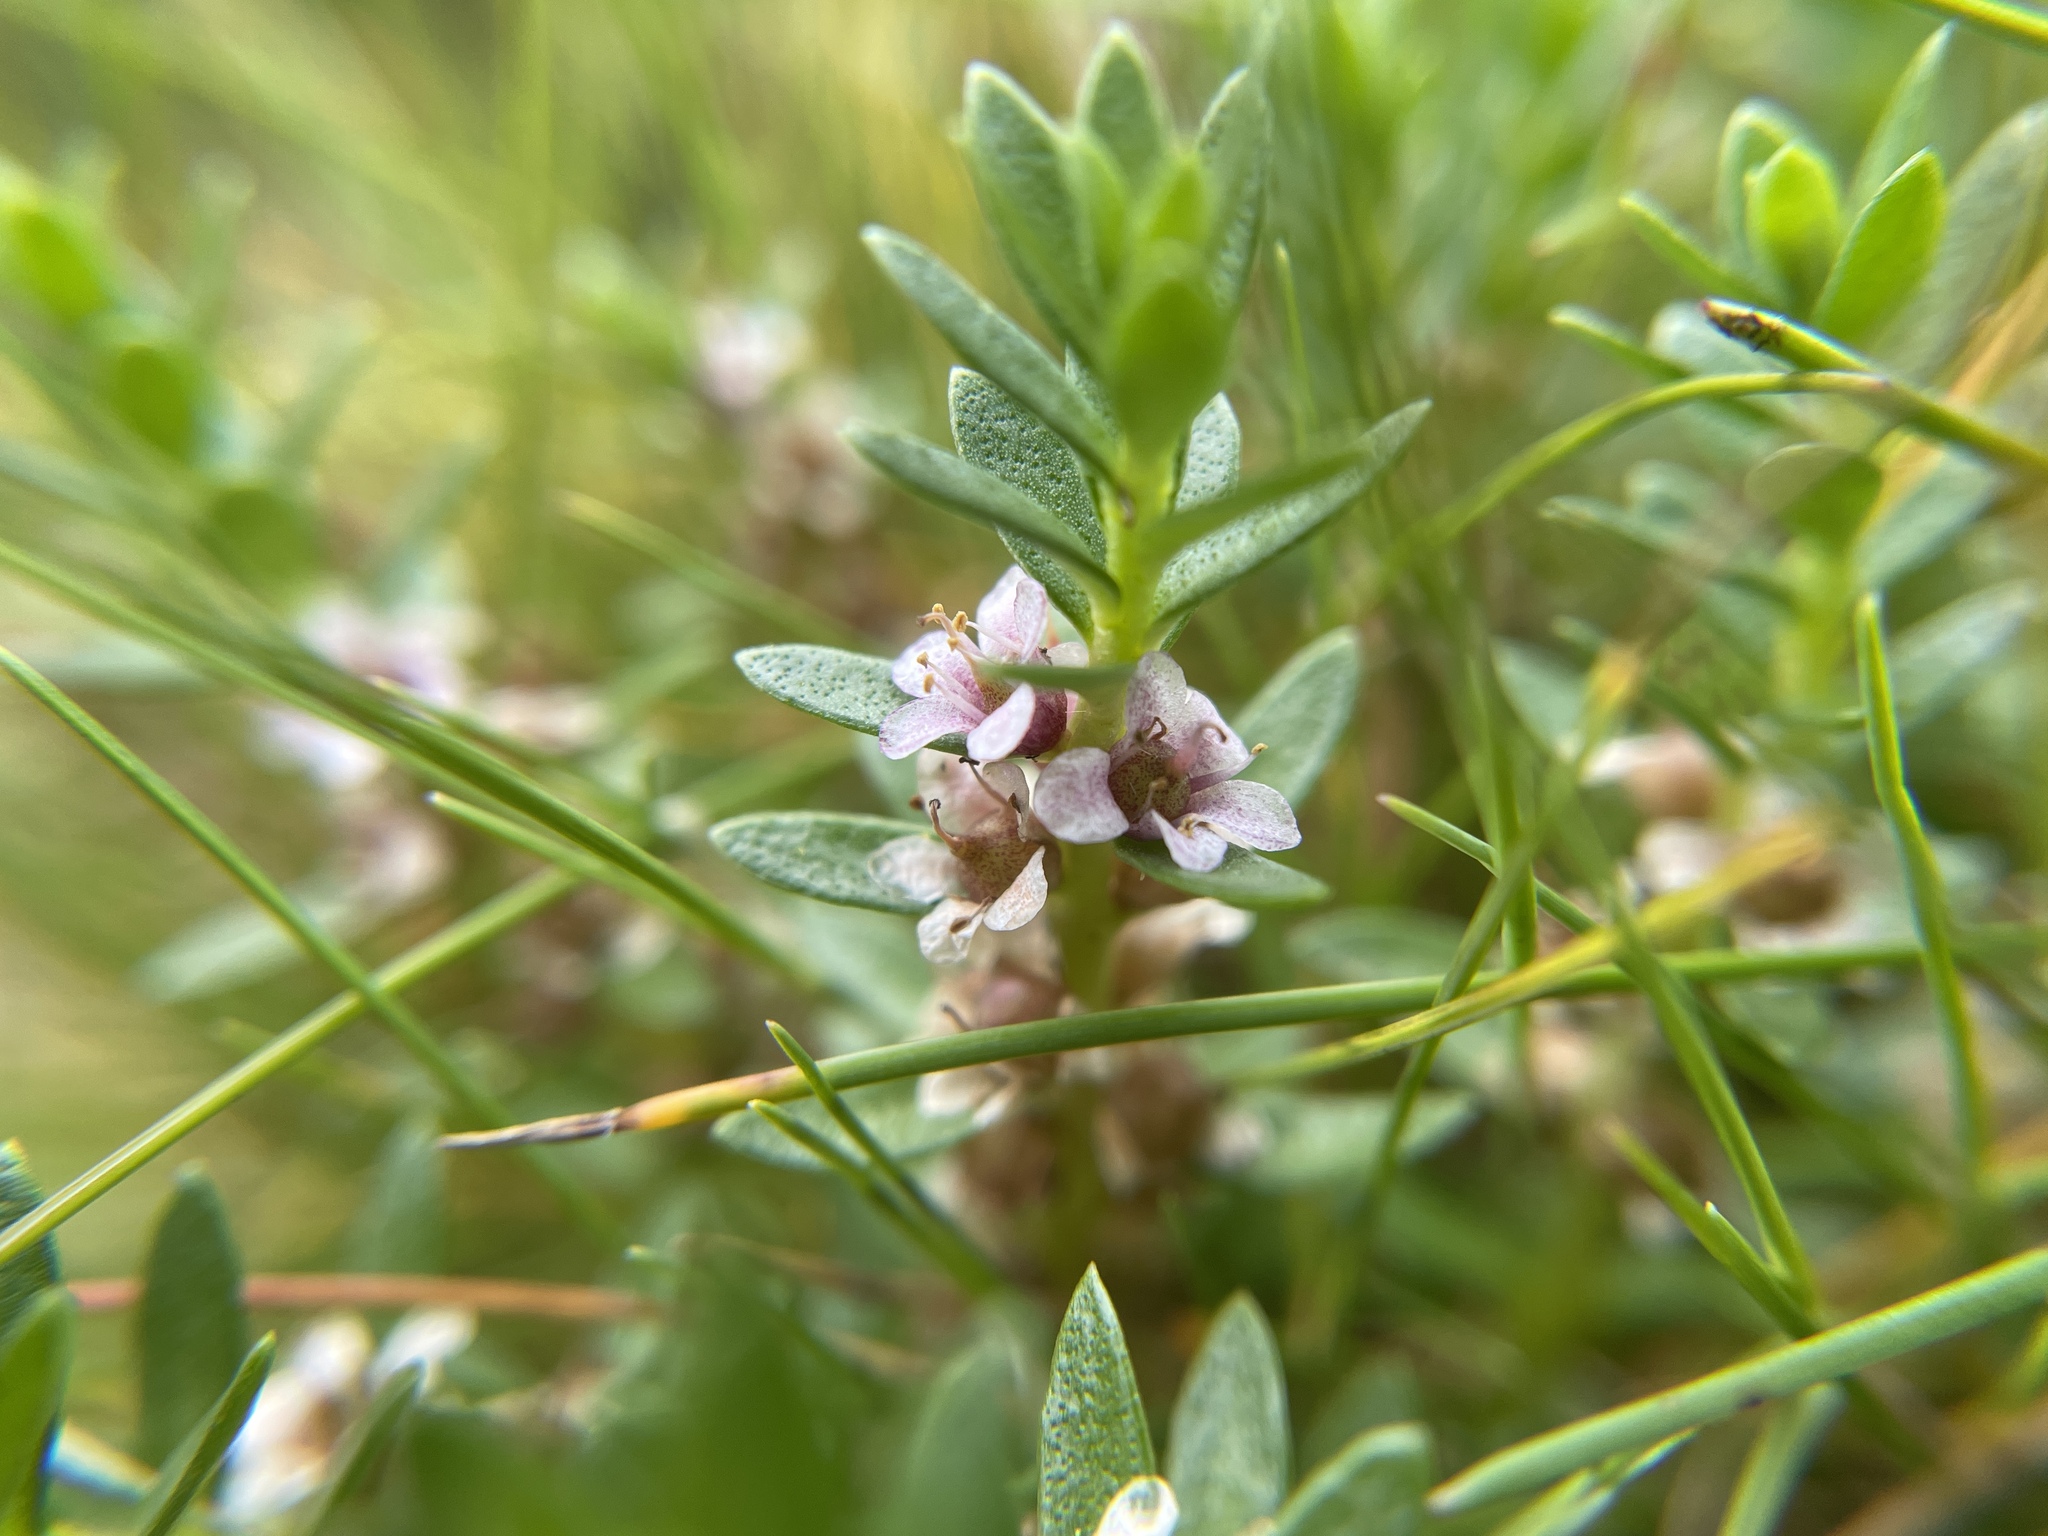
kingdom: Plantae
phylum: Tracheophyta
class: Magnoliopsida
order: Ericales
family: Primulaceae
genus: Lysimachia
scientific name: Lysimachia maritima
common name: Sea milkwort
